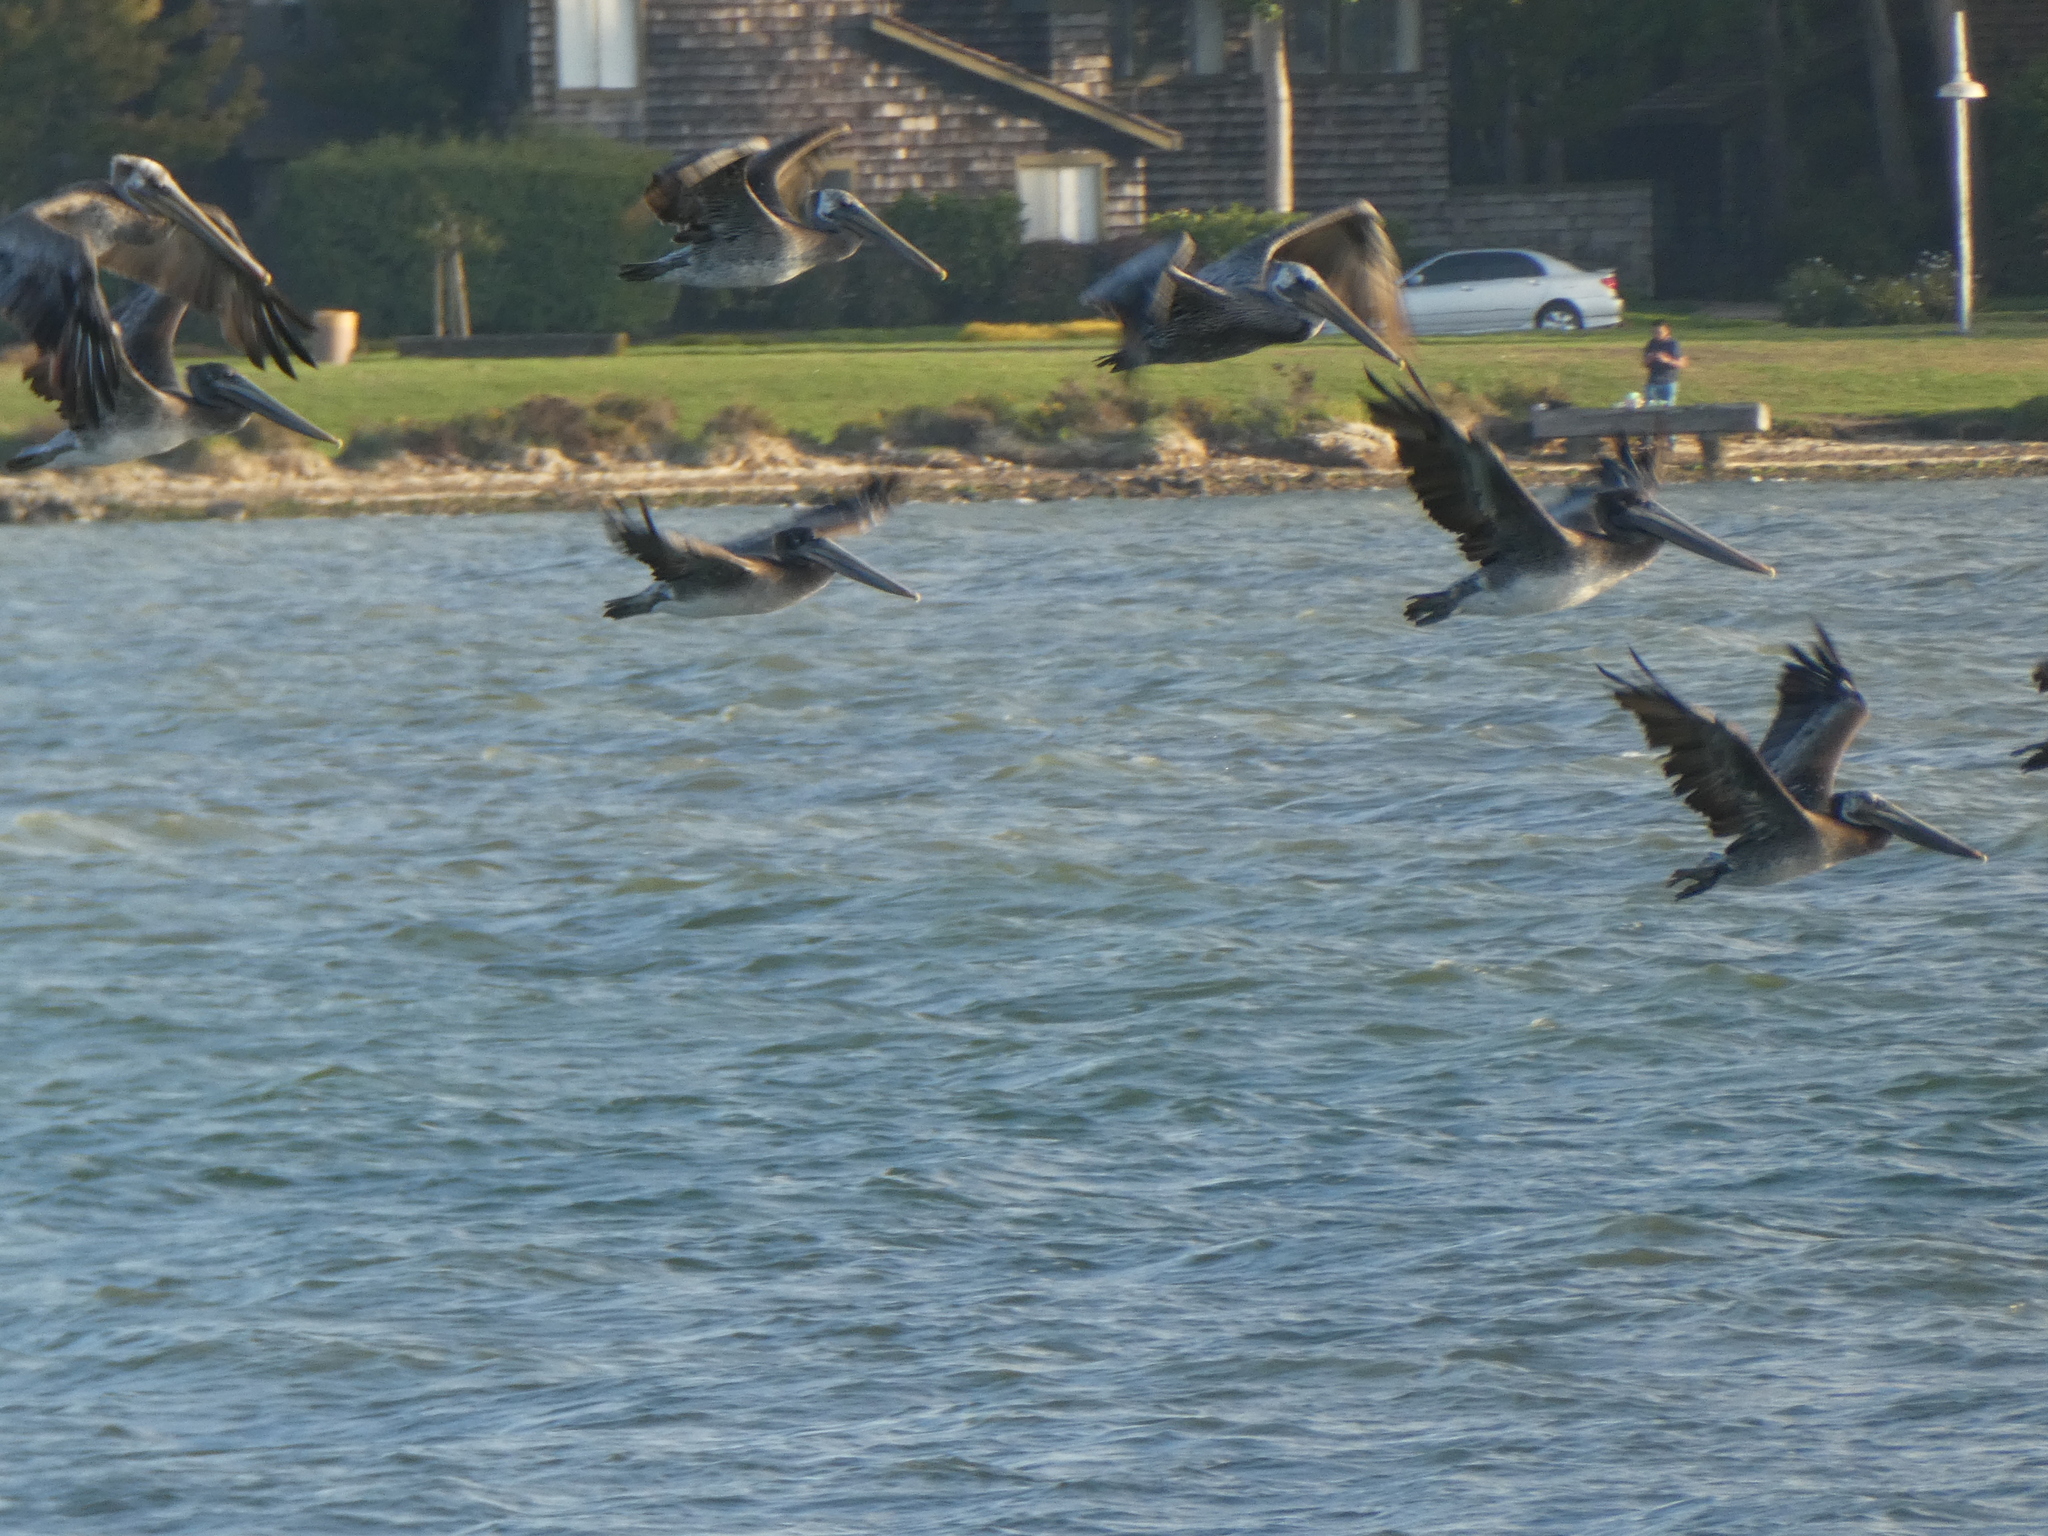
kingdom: Animalia
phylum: Chordata
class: Aves
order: Pelecaniformes
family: Pelecanidae
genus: Pelecanus
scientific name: Pelecanus occidentalis
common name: Brown pelican
